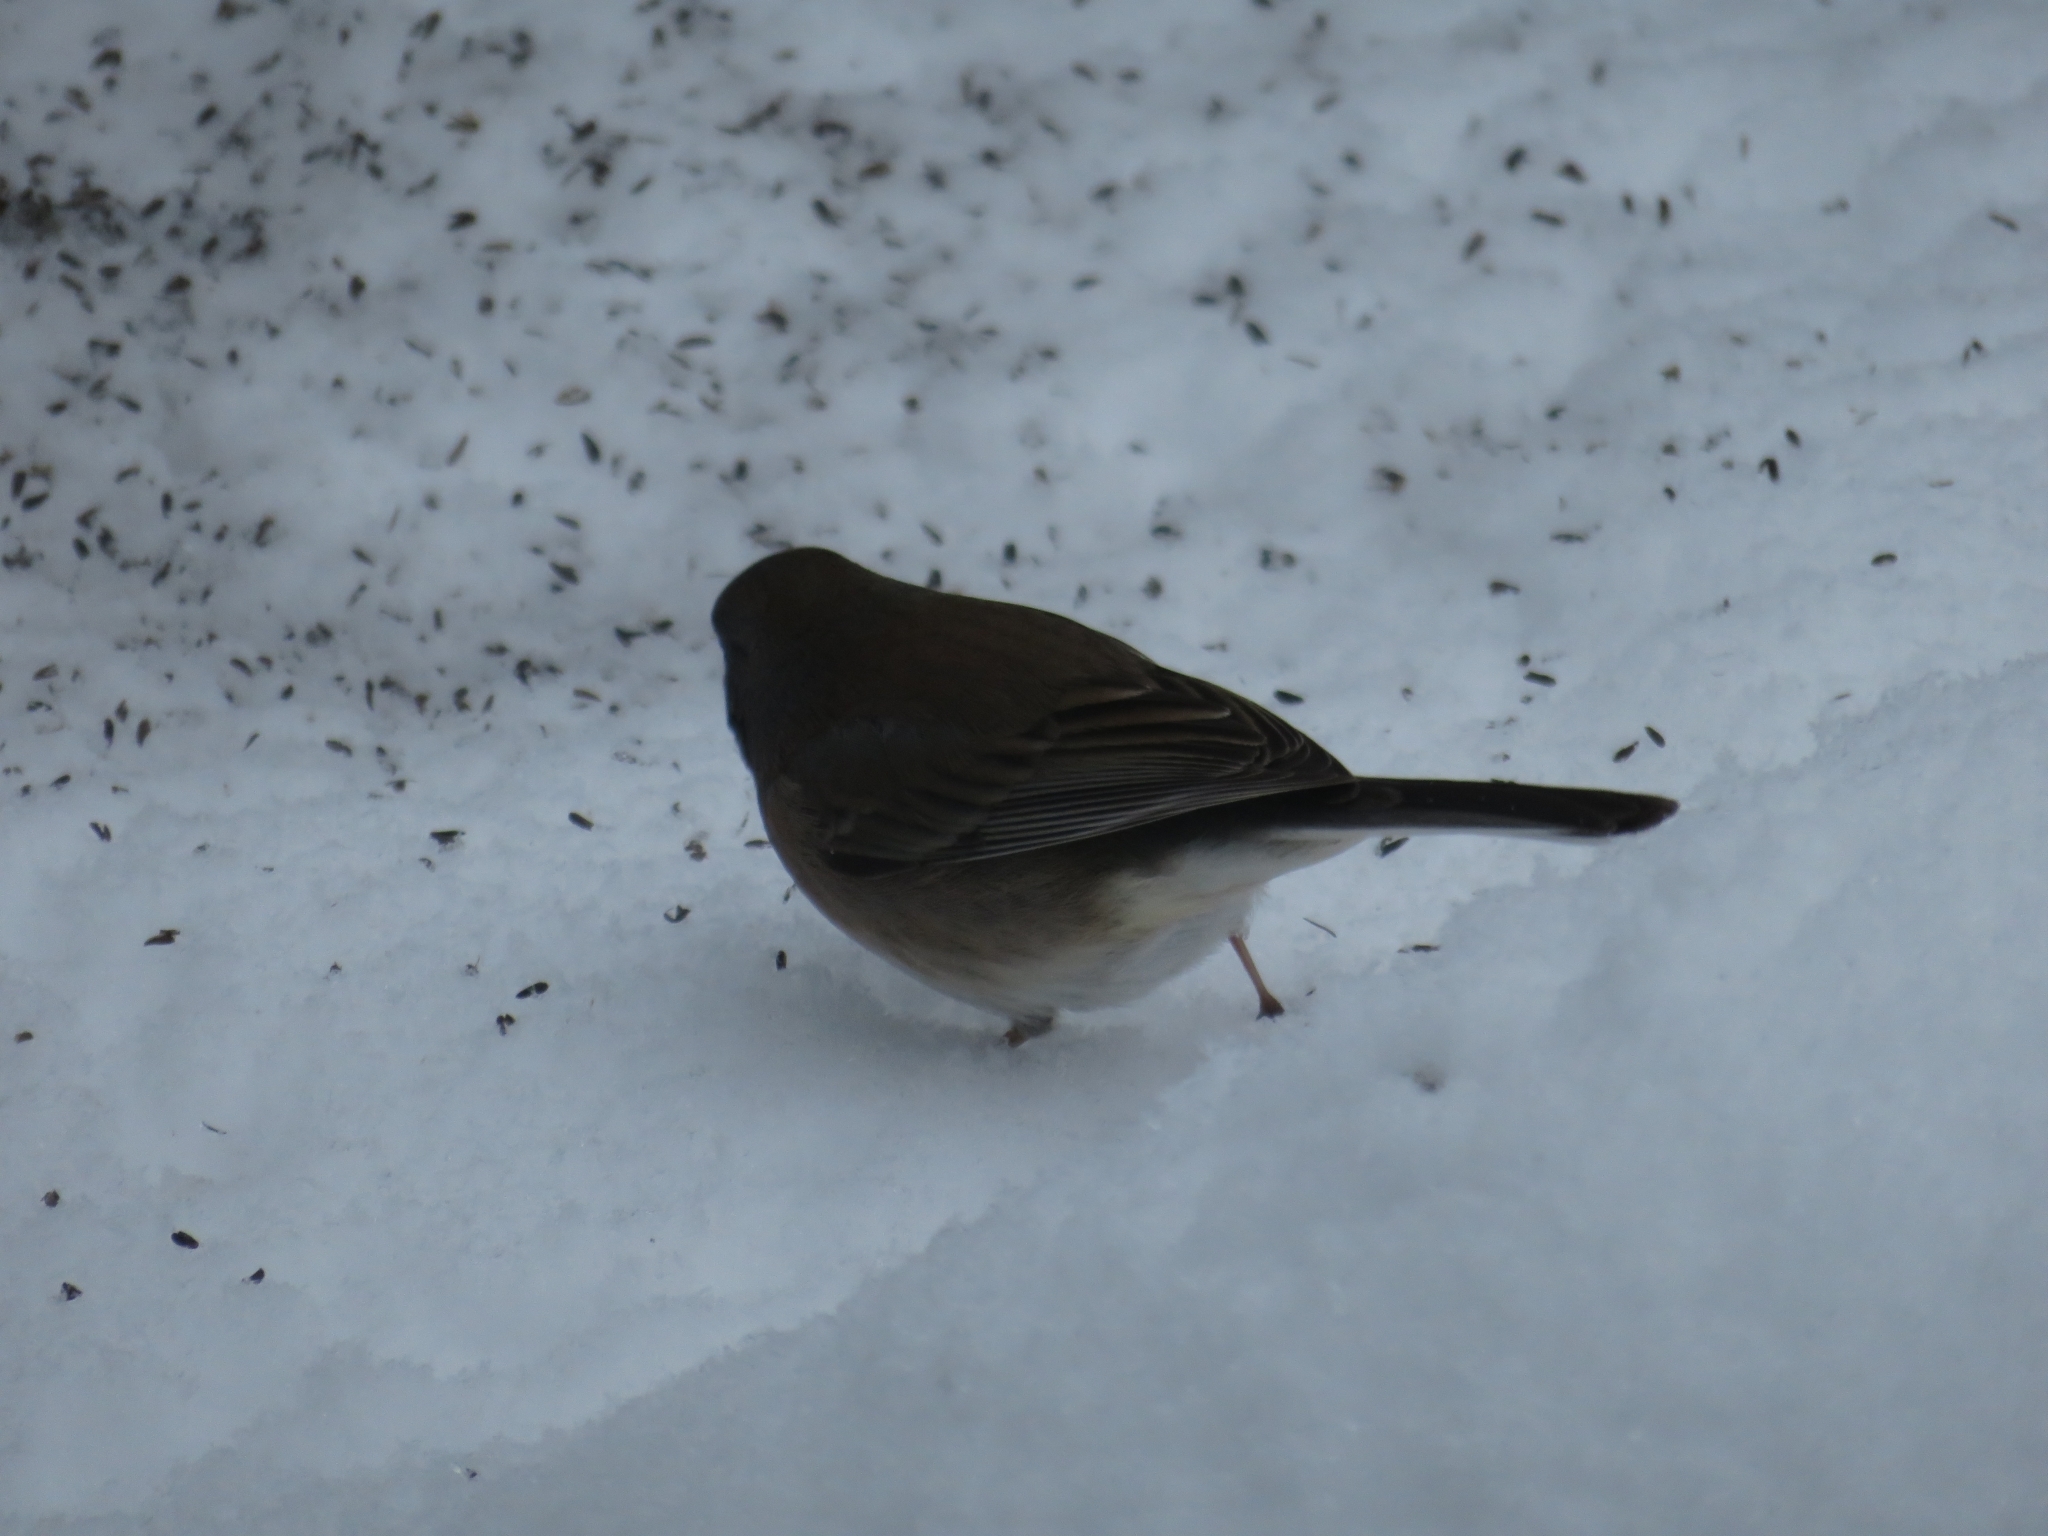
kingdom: Animalia
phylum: Chordata
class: Aves
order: Passeriformes
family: Passerellidae
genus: Junco
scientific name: Junco hyemalis
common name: Dark-eyed junco
